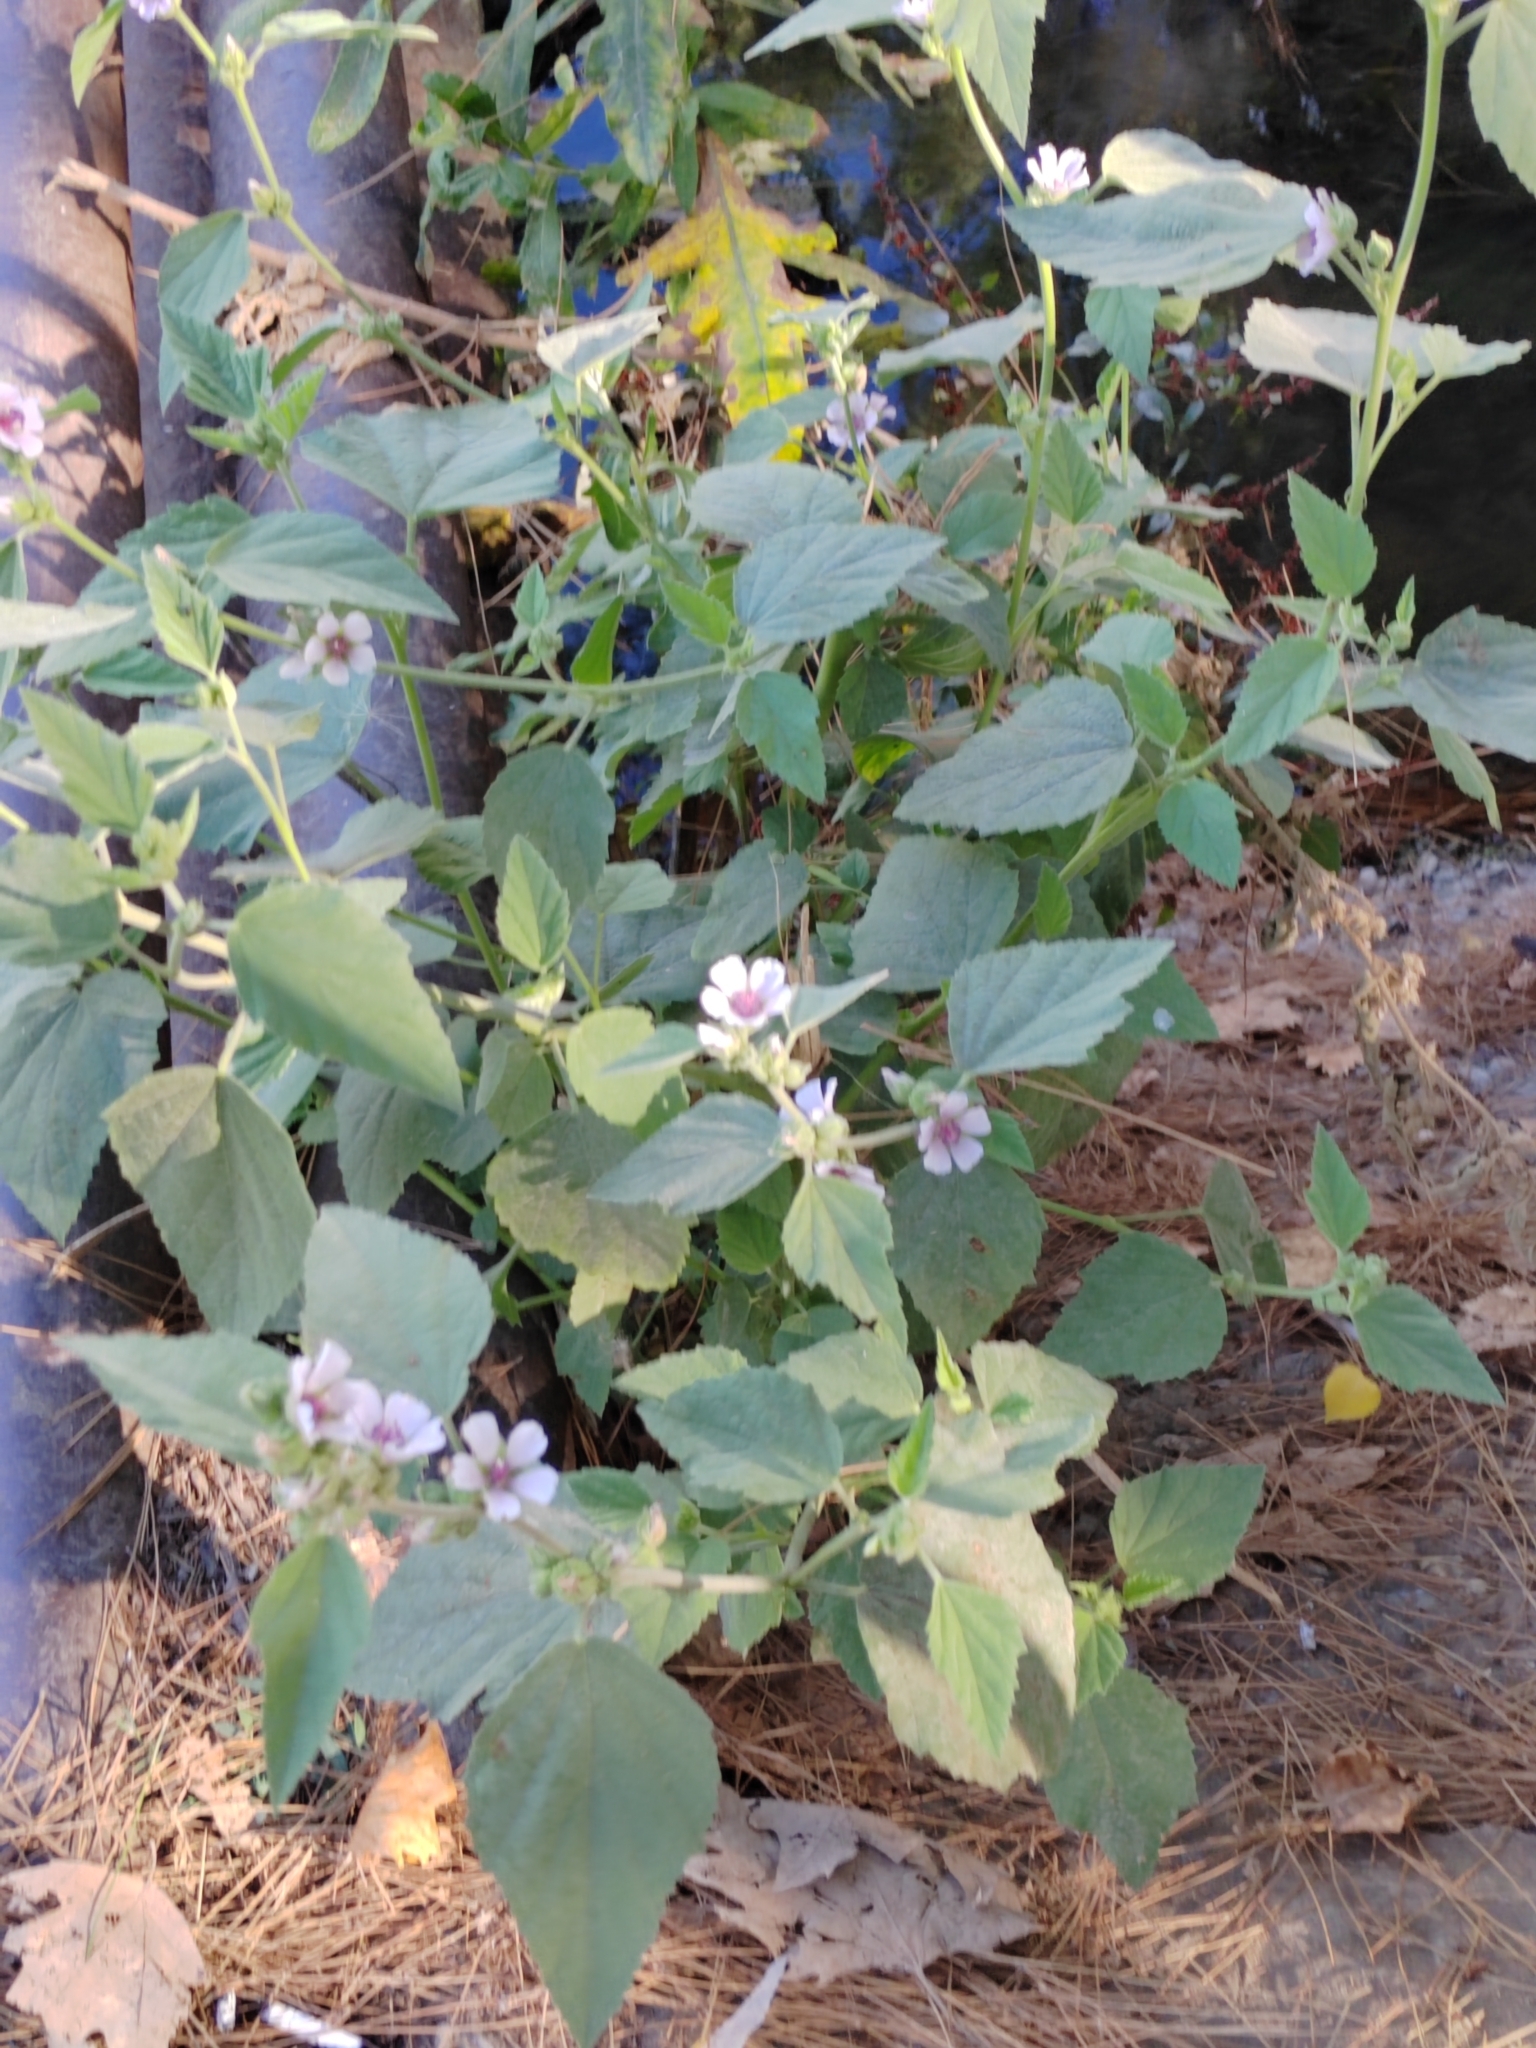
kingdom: Plantae
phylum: Tracheophyta
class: Magnoliopsida
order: Malvales
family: Malvaceae
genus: Althaea
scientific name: Althaea officinalis
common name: Marsh-mallow
